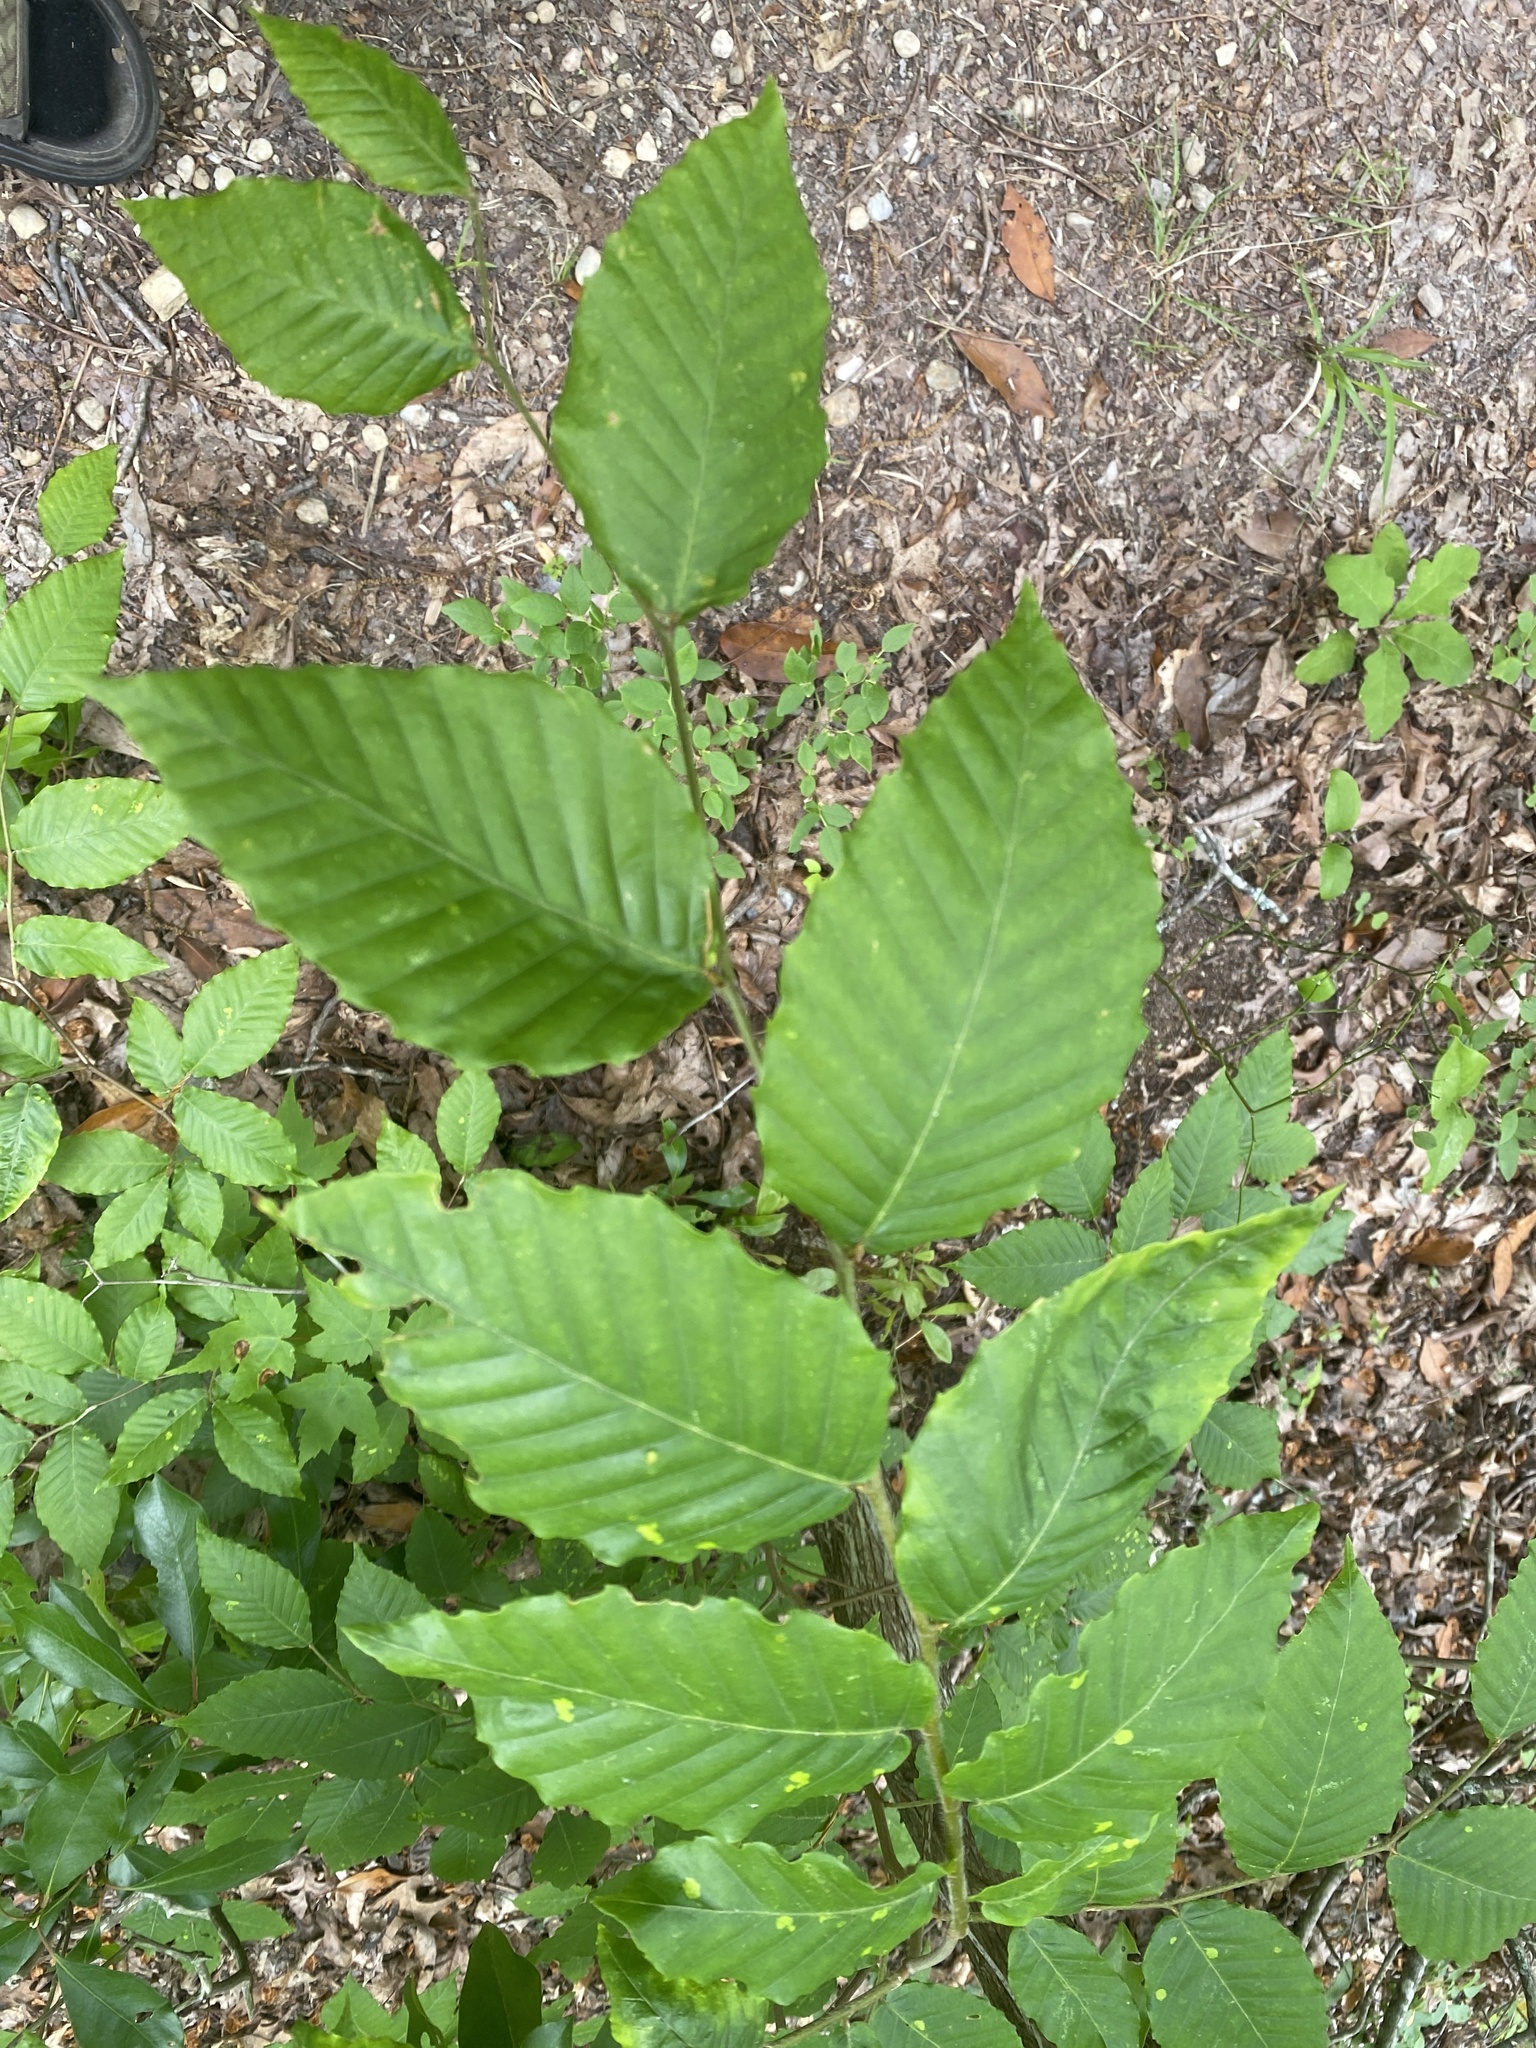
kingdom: Plantae
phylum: Tracheophyta
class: Magnoliopsida
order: Fagales
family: Fagaceae
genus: Fagus
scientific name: Fagus grandifolia
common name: American beech
